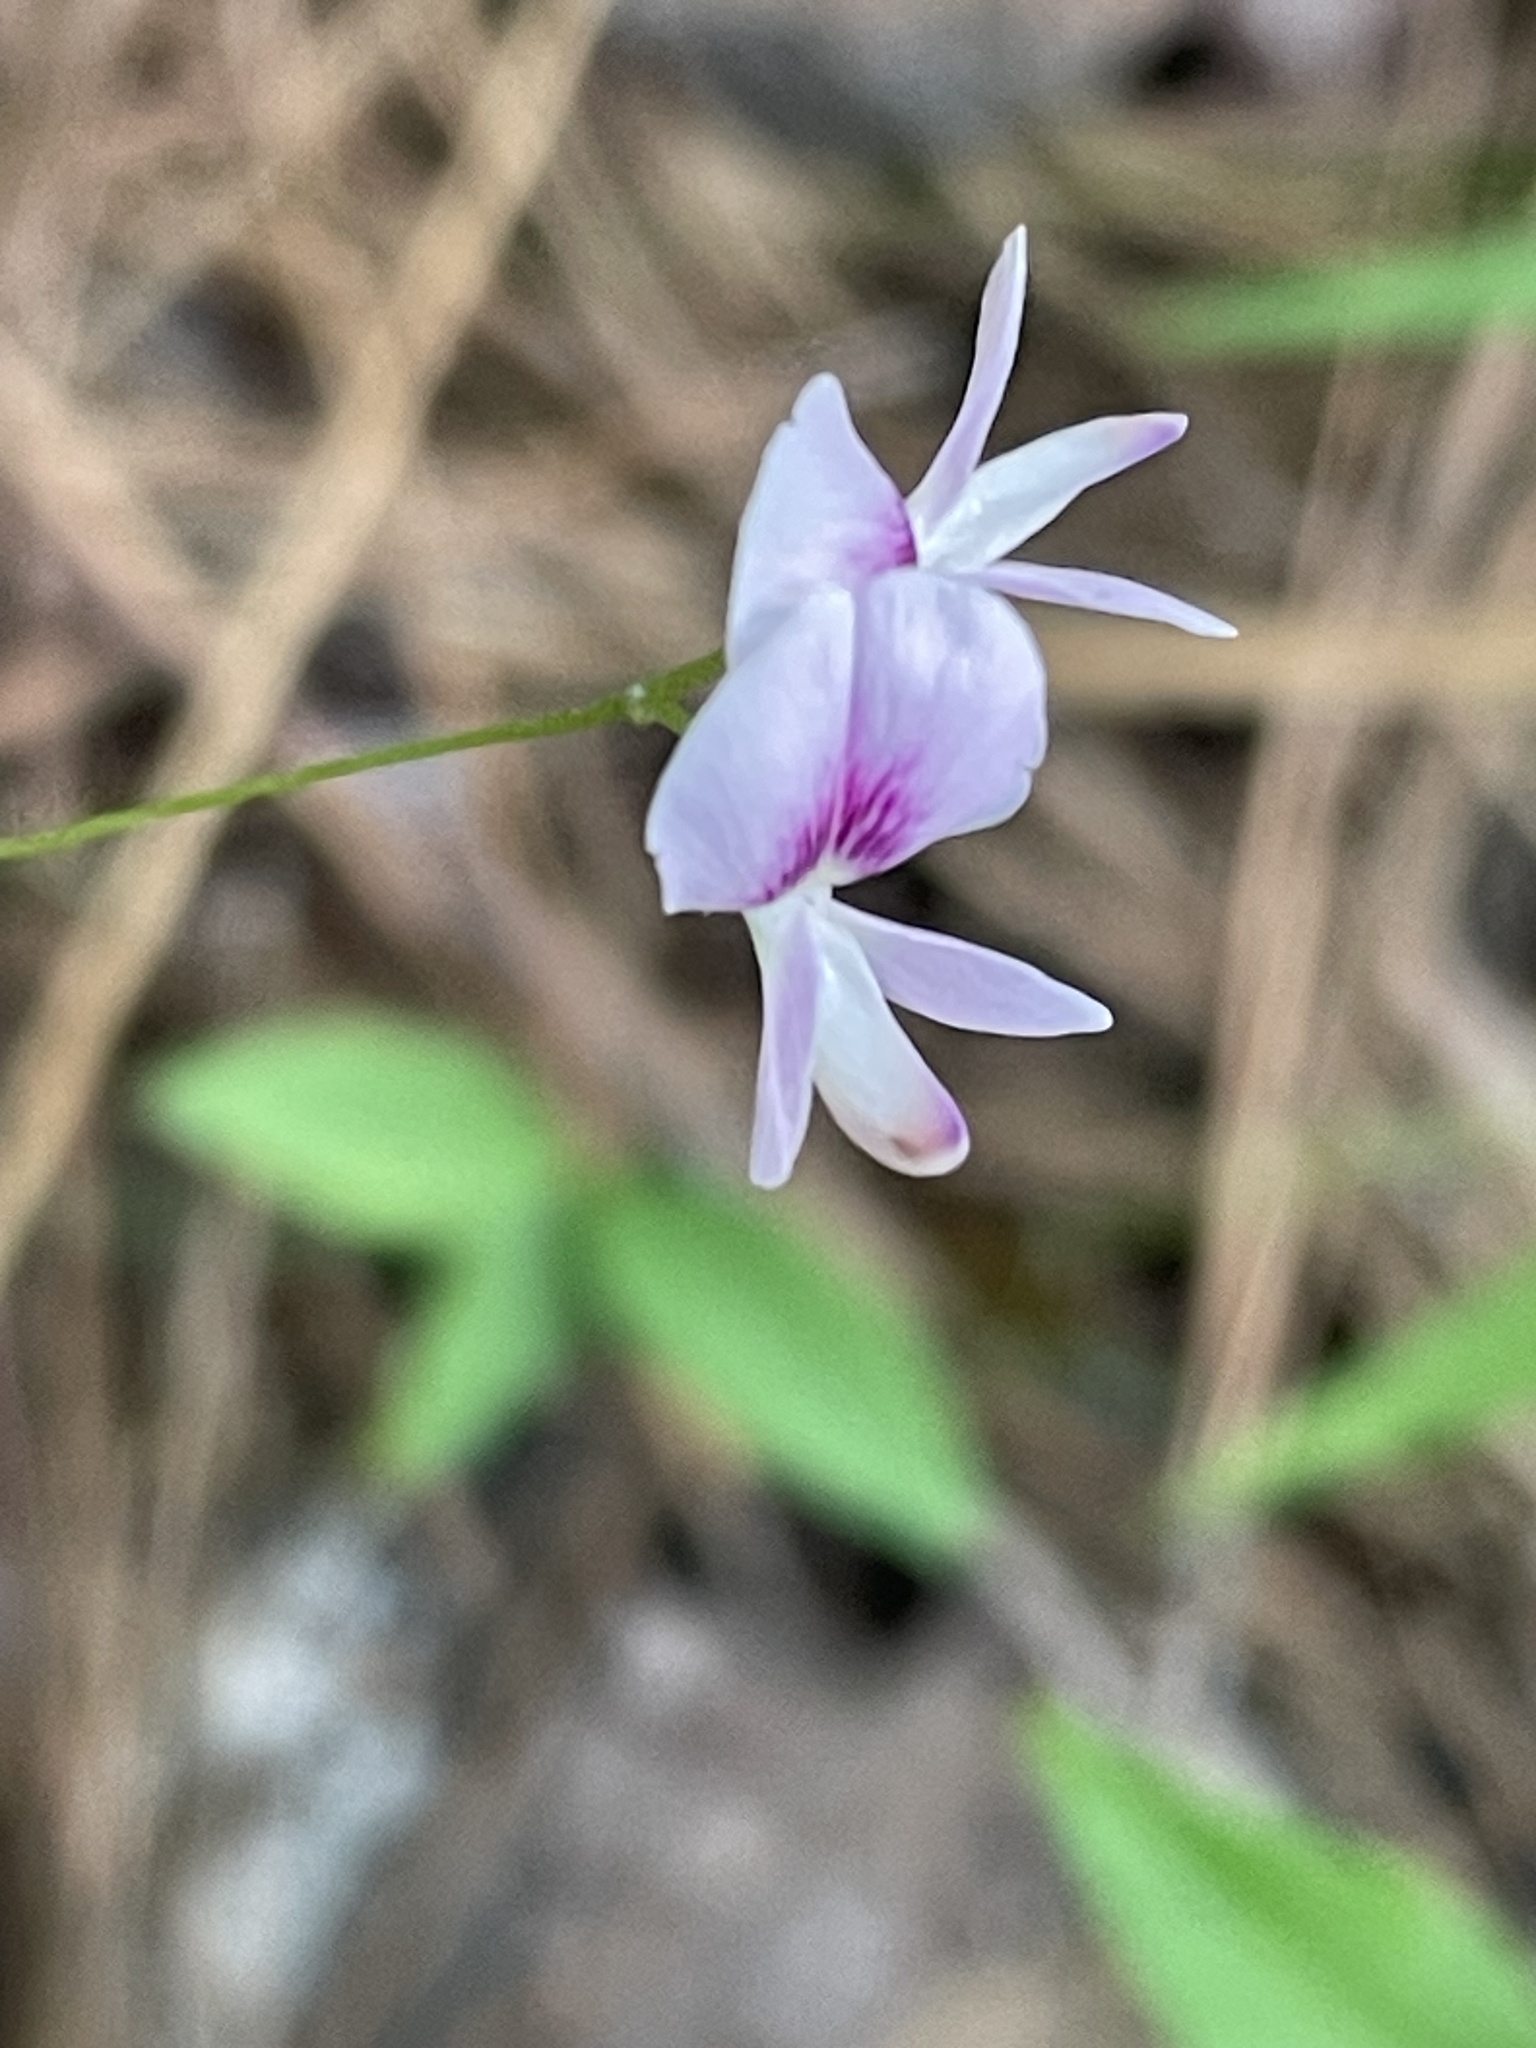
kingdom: Plantae
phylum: Tracheophyta
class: Magnoliopsida
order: Fabales
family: Fabaceae
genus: Lespedeza
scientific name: Lespedeza repens
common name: Creeping bush-clover
